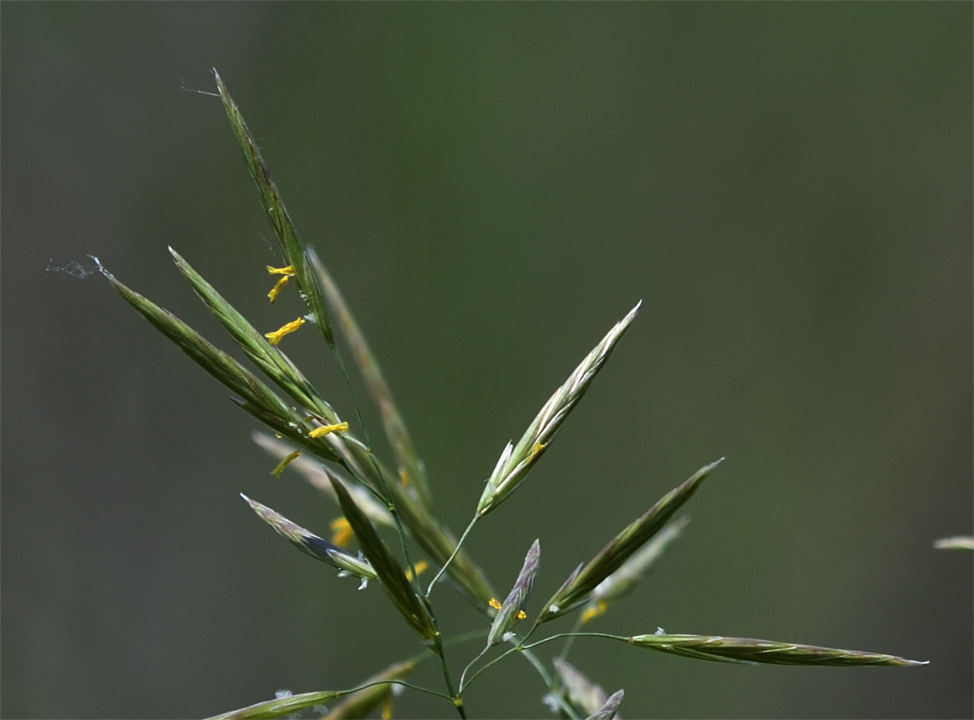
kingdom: Plantae
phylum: Tracheophyta
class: Liliopsida
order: Poales
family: Poaceae
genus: Bromus
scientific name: Bromus inermis
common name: Smooth brome
